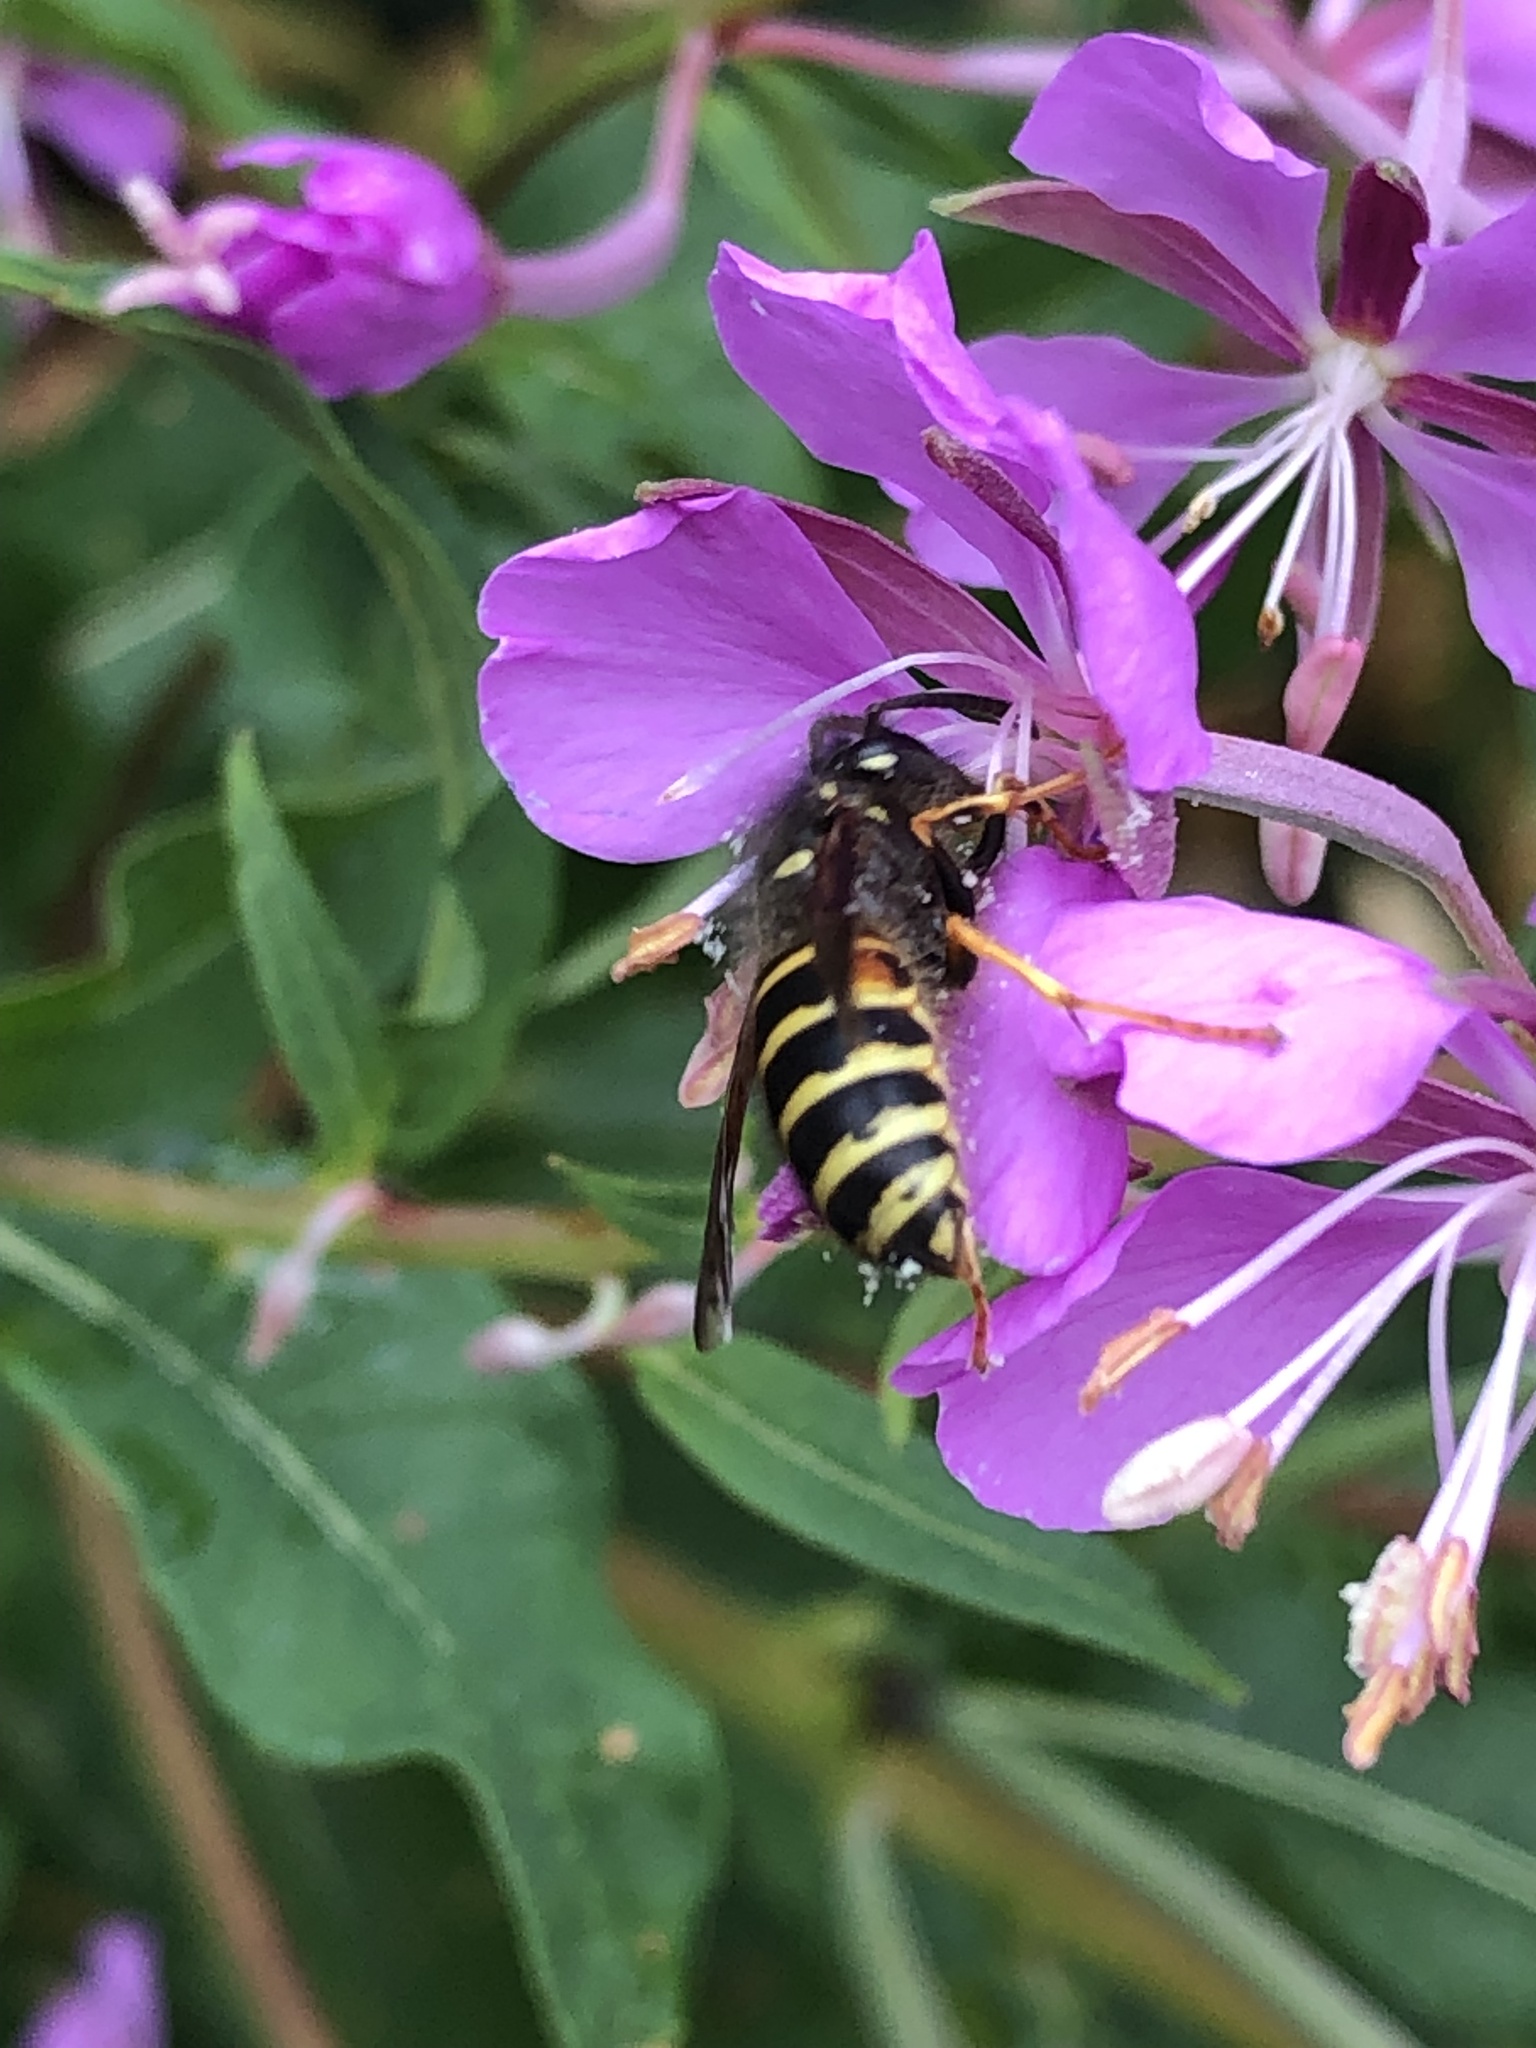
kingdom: Animalia
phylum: Arthropoda
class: Insecta
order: Hymenoptera
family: Vespidae
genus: Dolichovespula
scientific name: Dolichovespula norwegica
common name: Norwegian wasp
